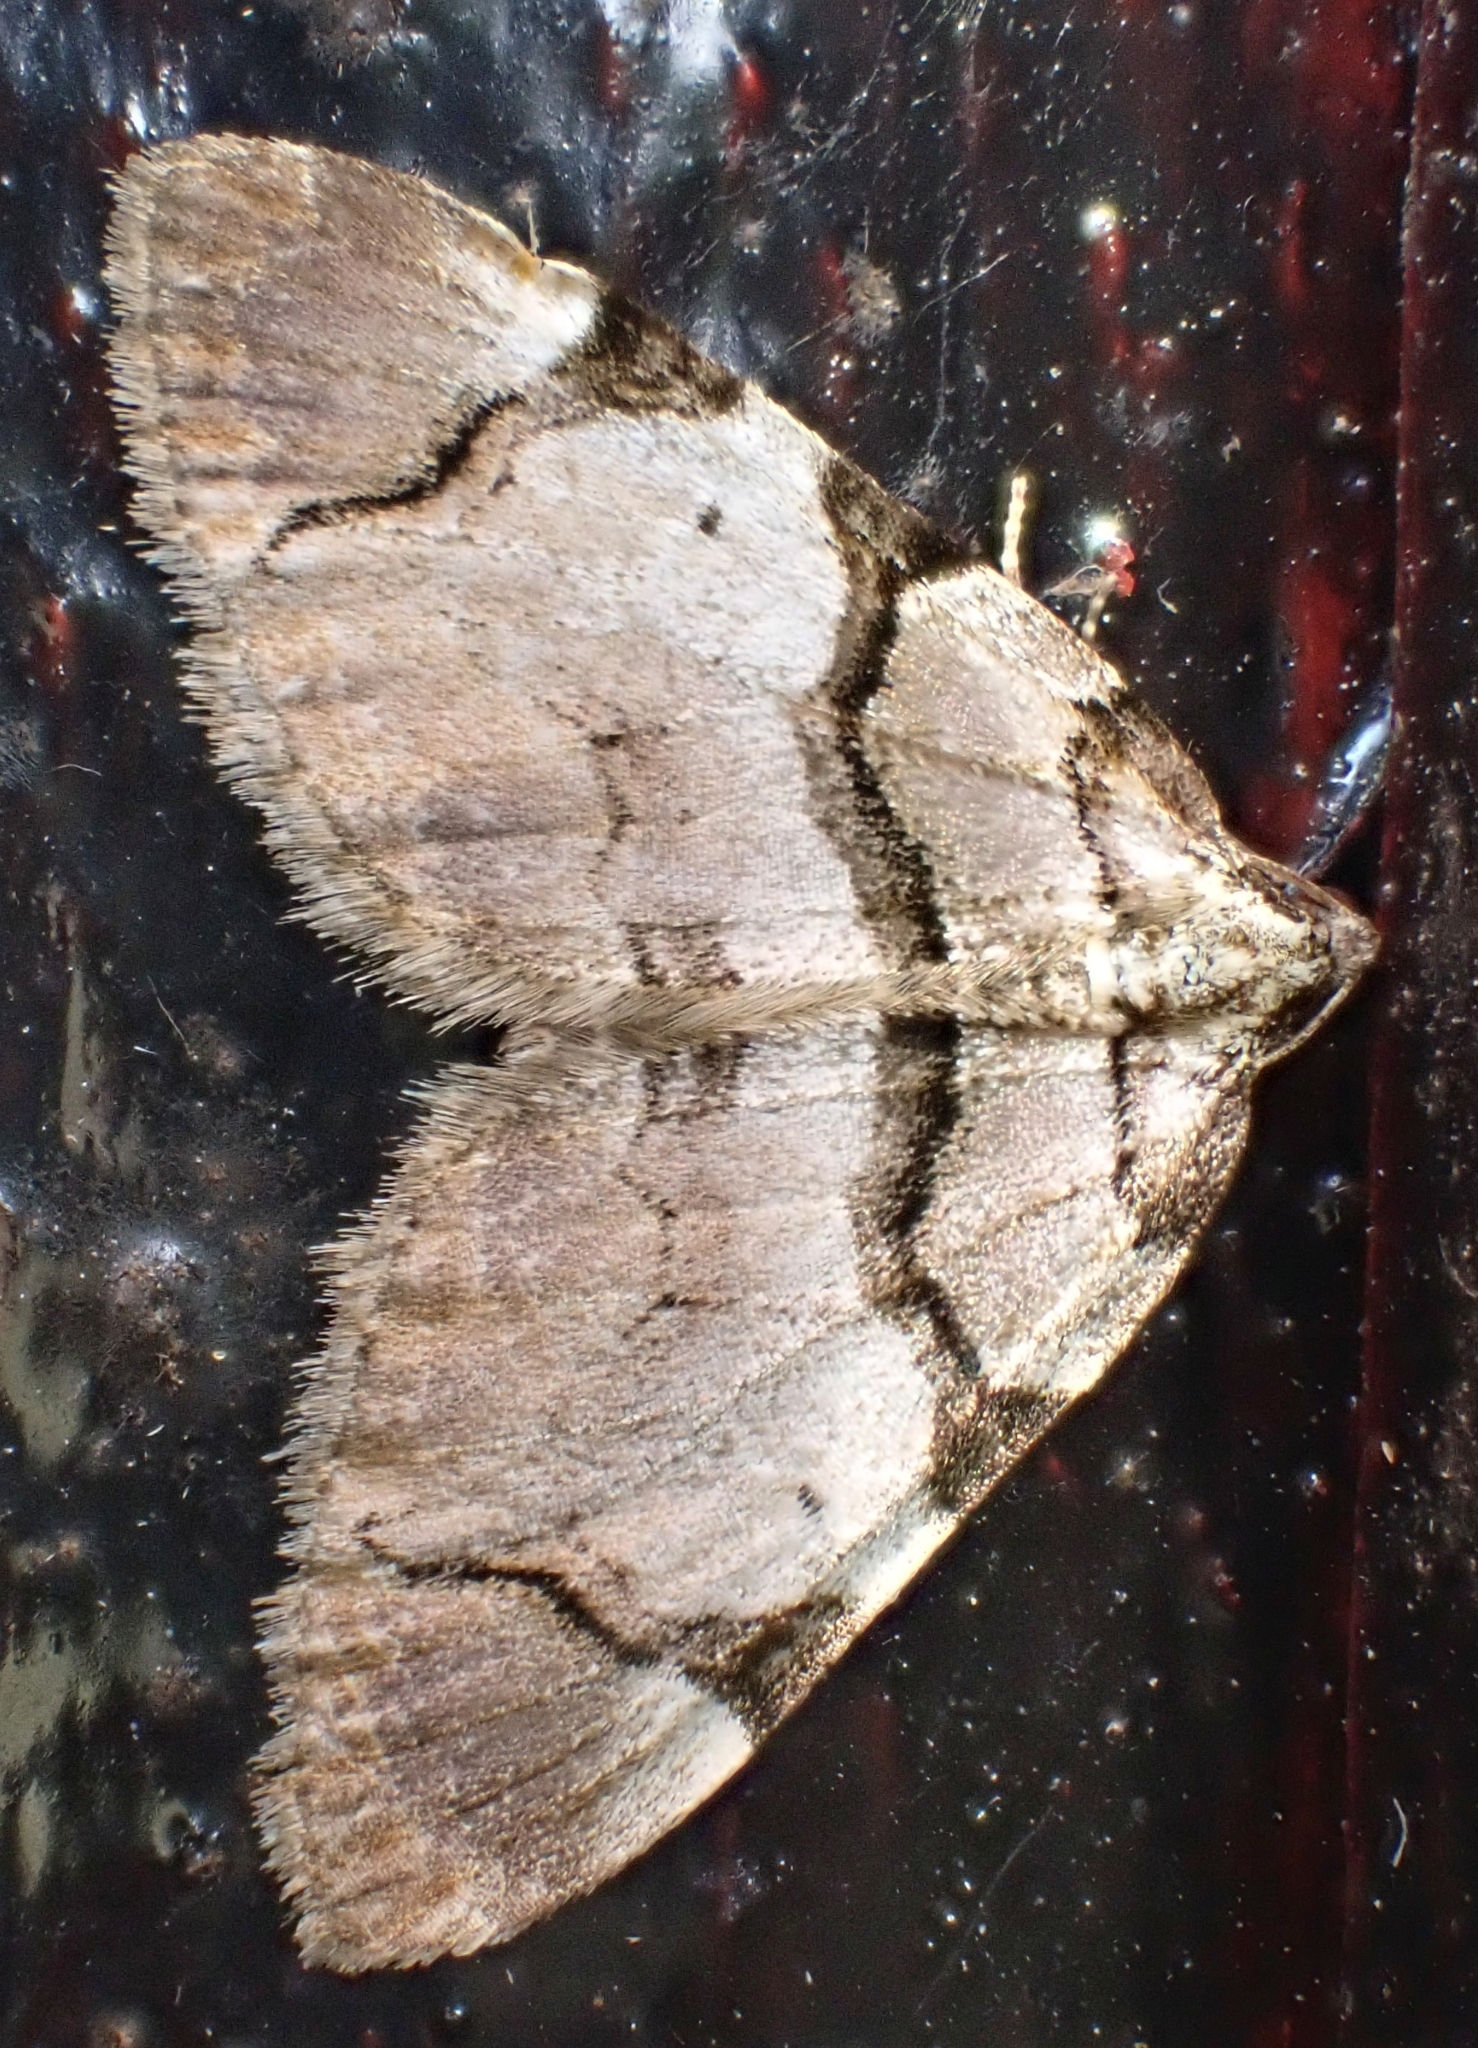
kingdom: Animalia
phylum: Arthropoda
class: Insecta
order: Lepidoptera
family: Geometridae
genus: Anticlea
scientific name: Anticlea derivata
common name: Streamer
